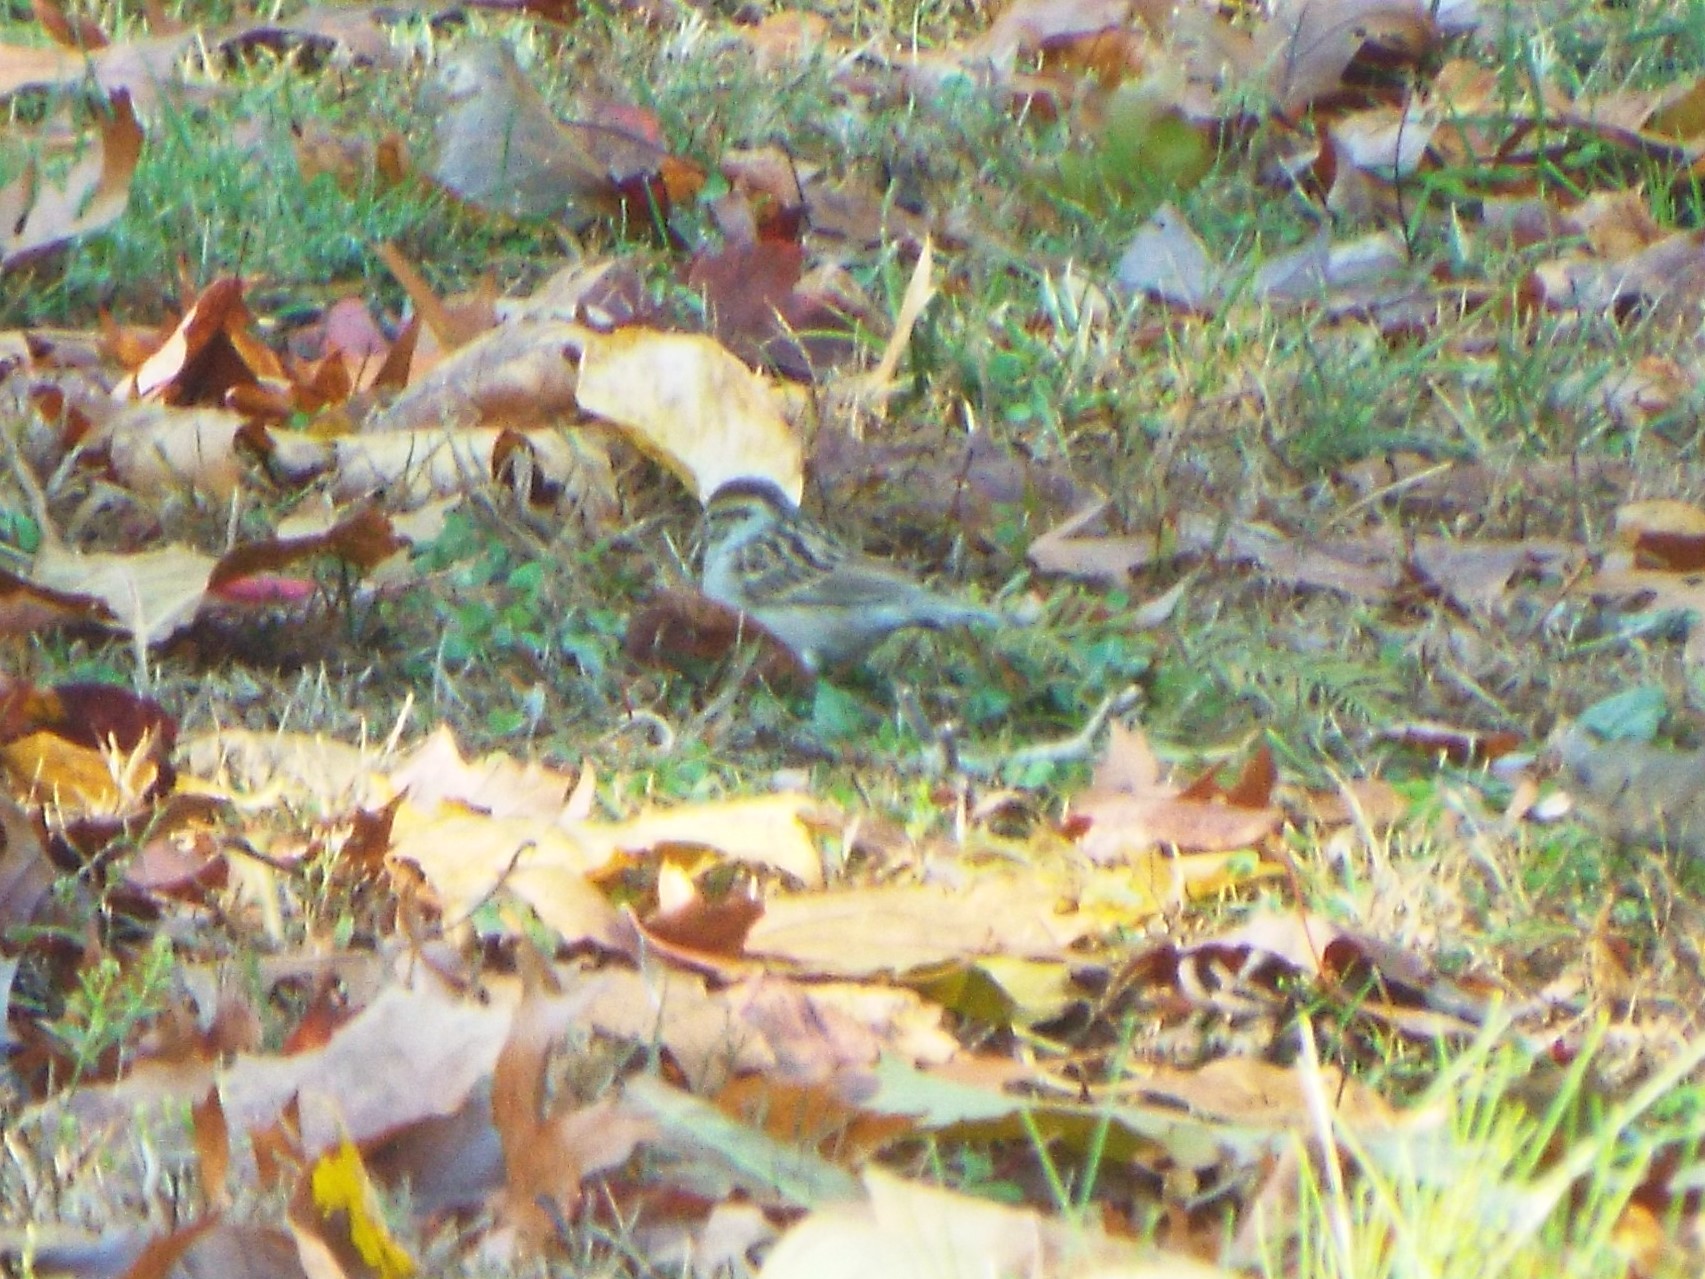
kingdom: Animalia
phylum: Chordata
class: Aves
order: Passeriformes
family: Passerellidae
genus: Spizella
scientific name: Spizella passerina
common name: Chipping sparrow
